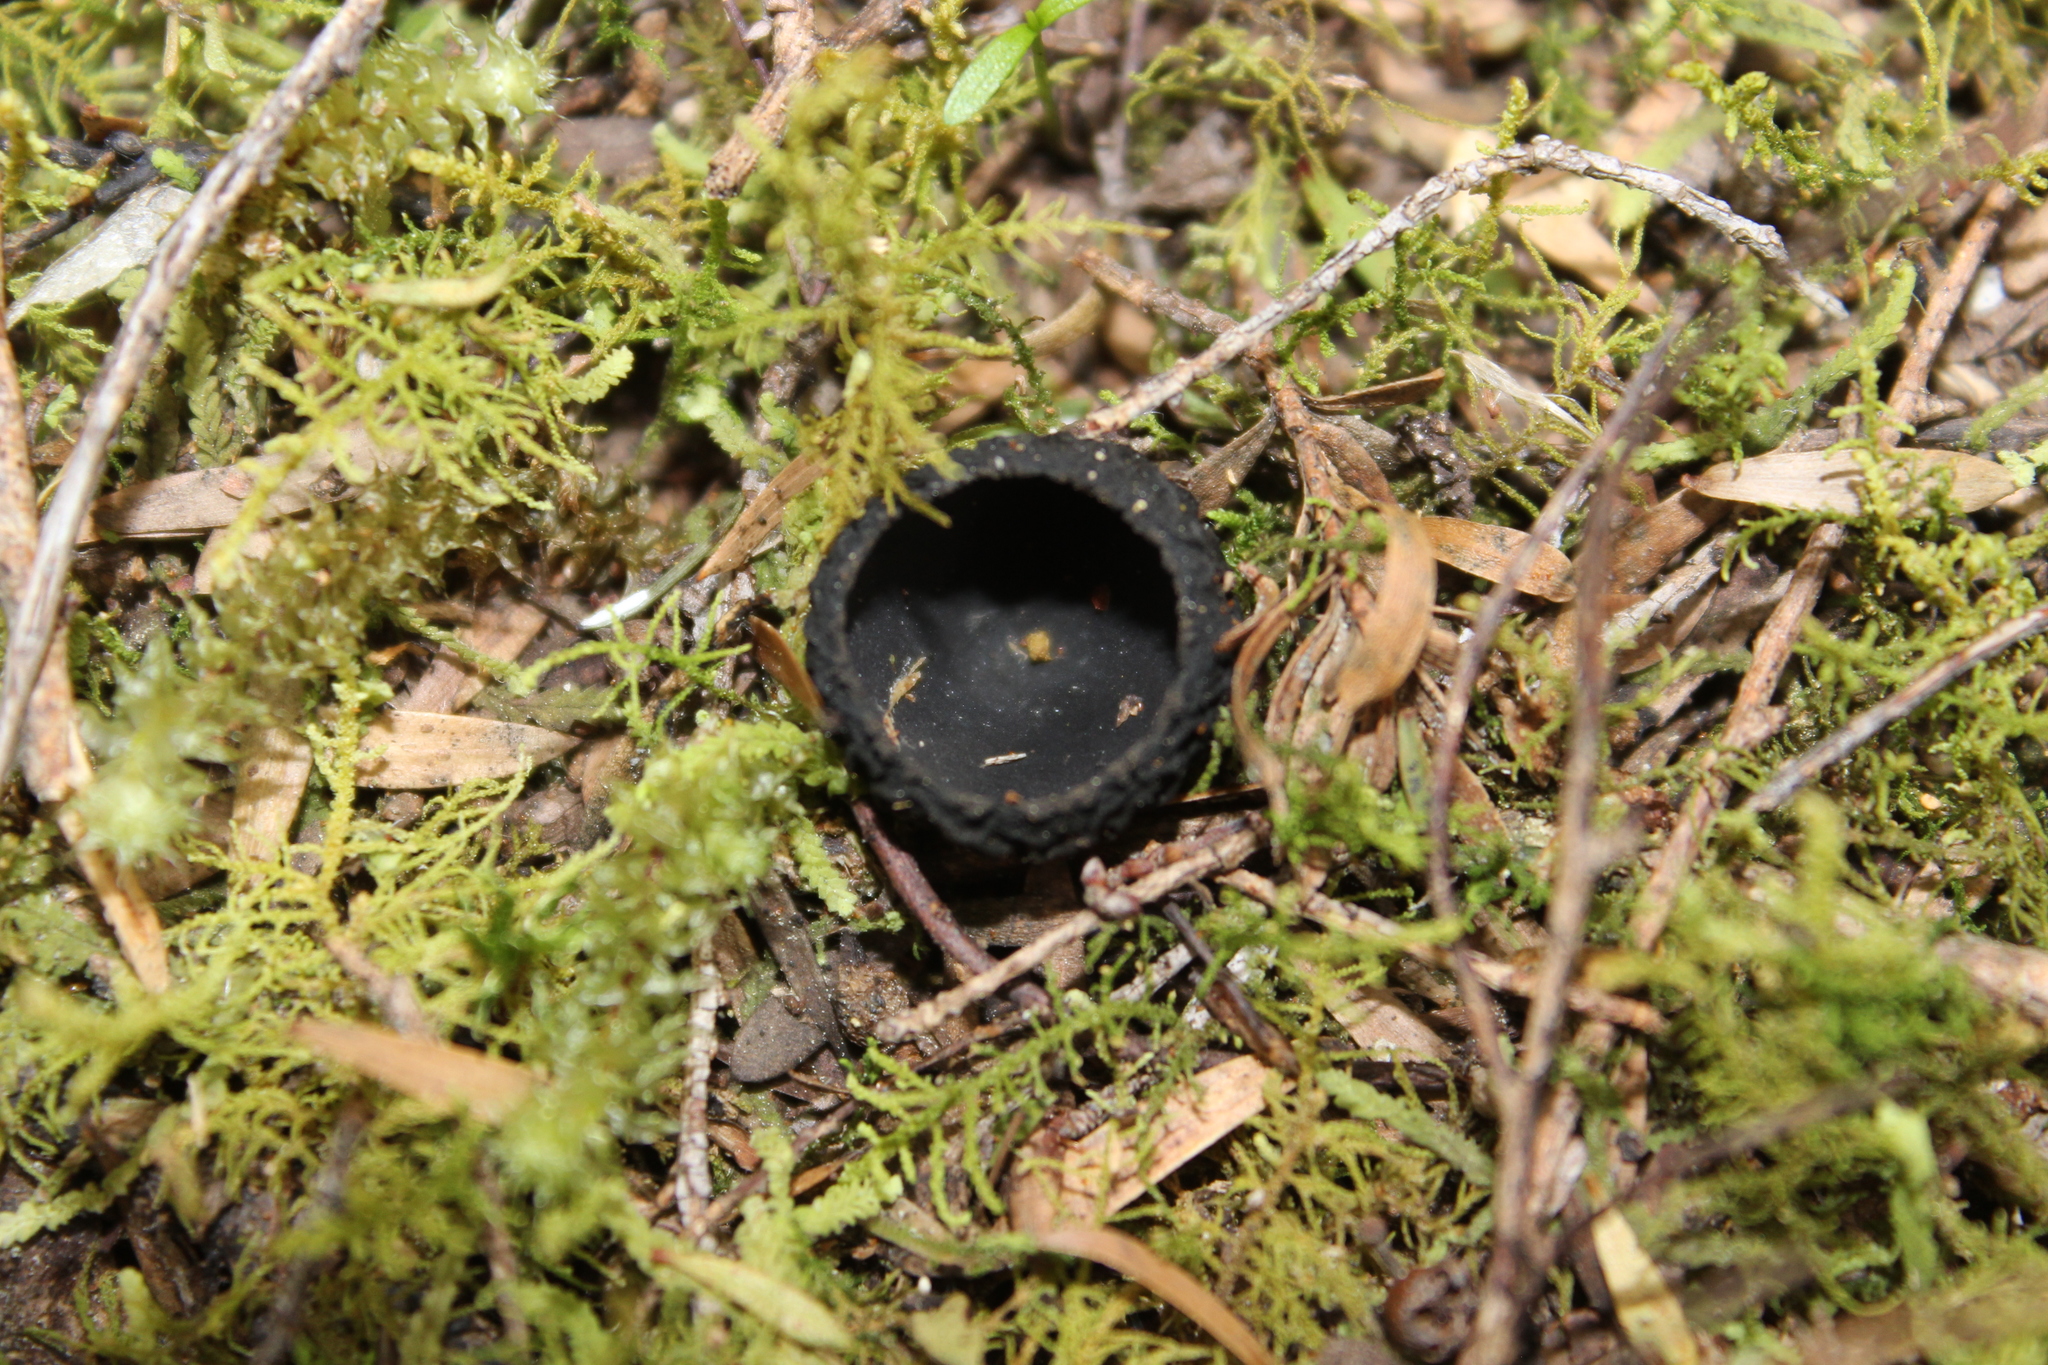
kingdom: Fungi
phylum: Ascomycota
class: Pezizomycetes
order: Pezizales
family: Sarcosomataceae
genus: Plectania
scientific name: Plectania rhytidia
